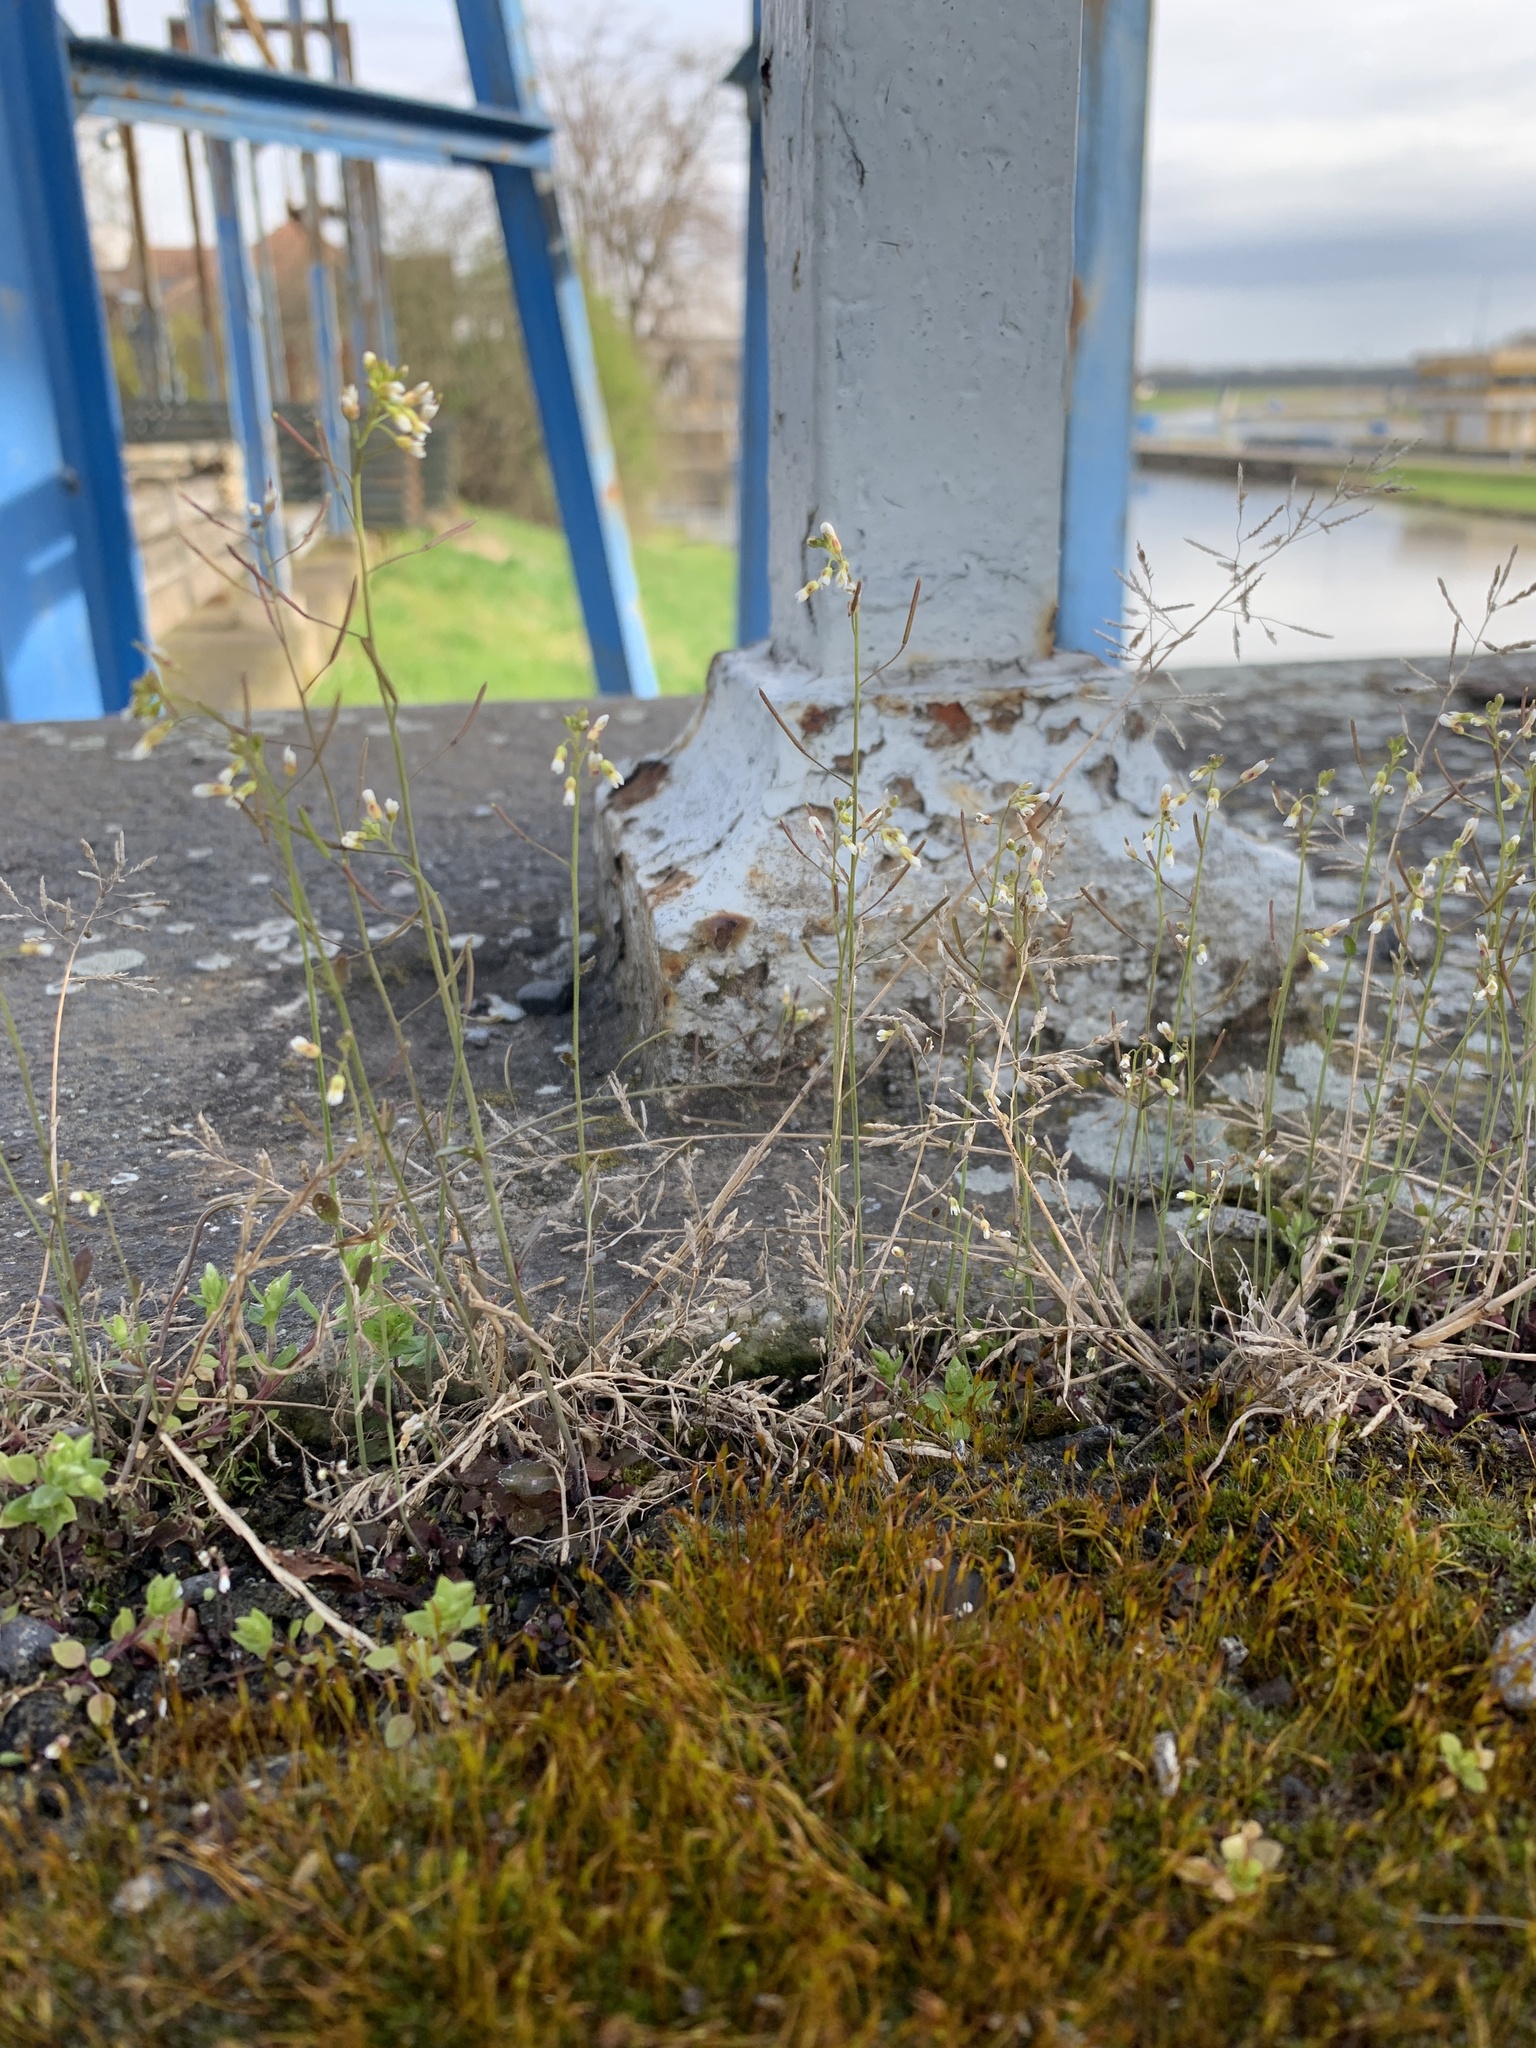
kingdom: Plantae
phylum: Tracheophyta
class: Magnoliopsida
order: Brassicales
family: Brassicaceae
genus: Arabidopsis
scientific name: Arabidopsis thaliana
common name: Thale cress
